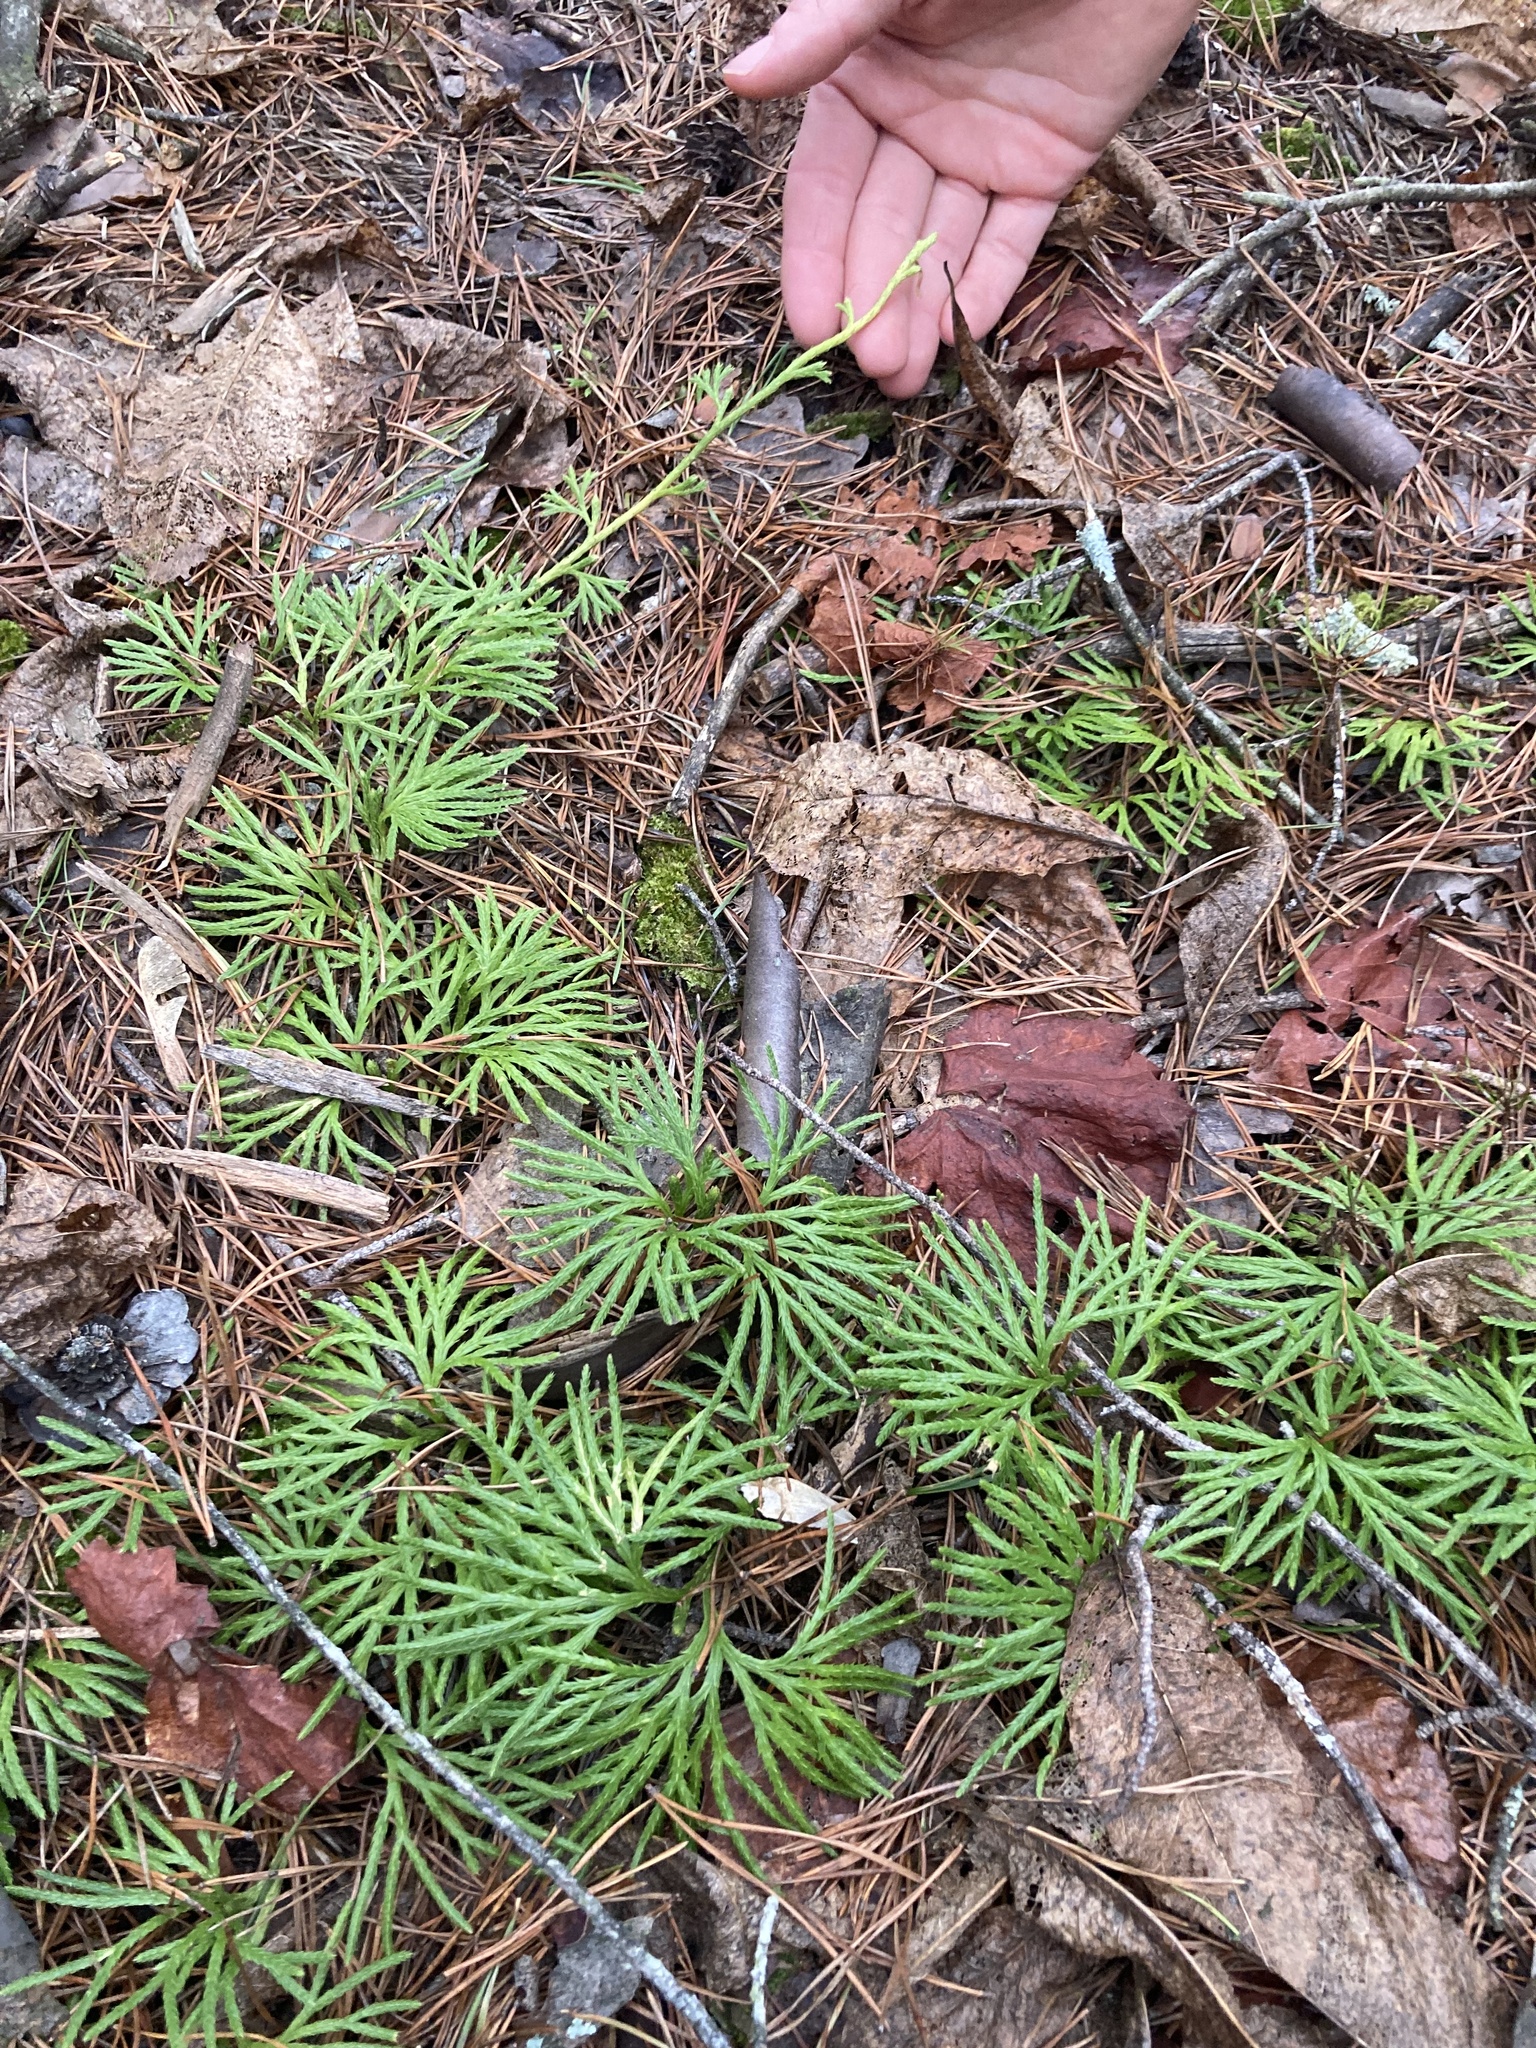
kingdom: Plantae
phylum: Tracheophyta
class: Lycopodiopsida
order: Lycopodiales
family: Lycopodiaceae
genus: Diphasiastrum
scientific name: Diphasiastrum digitatum
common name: Southern running-pine
